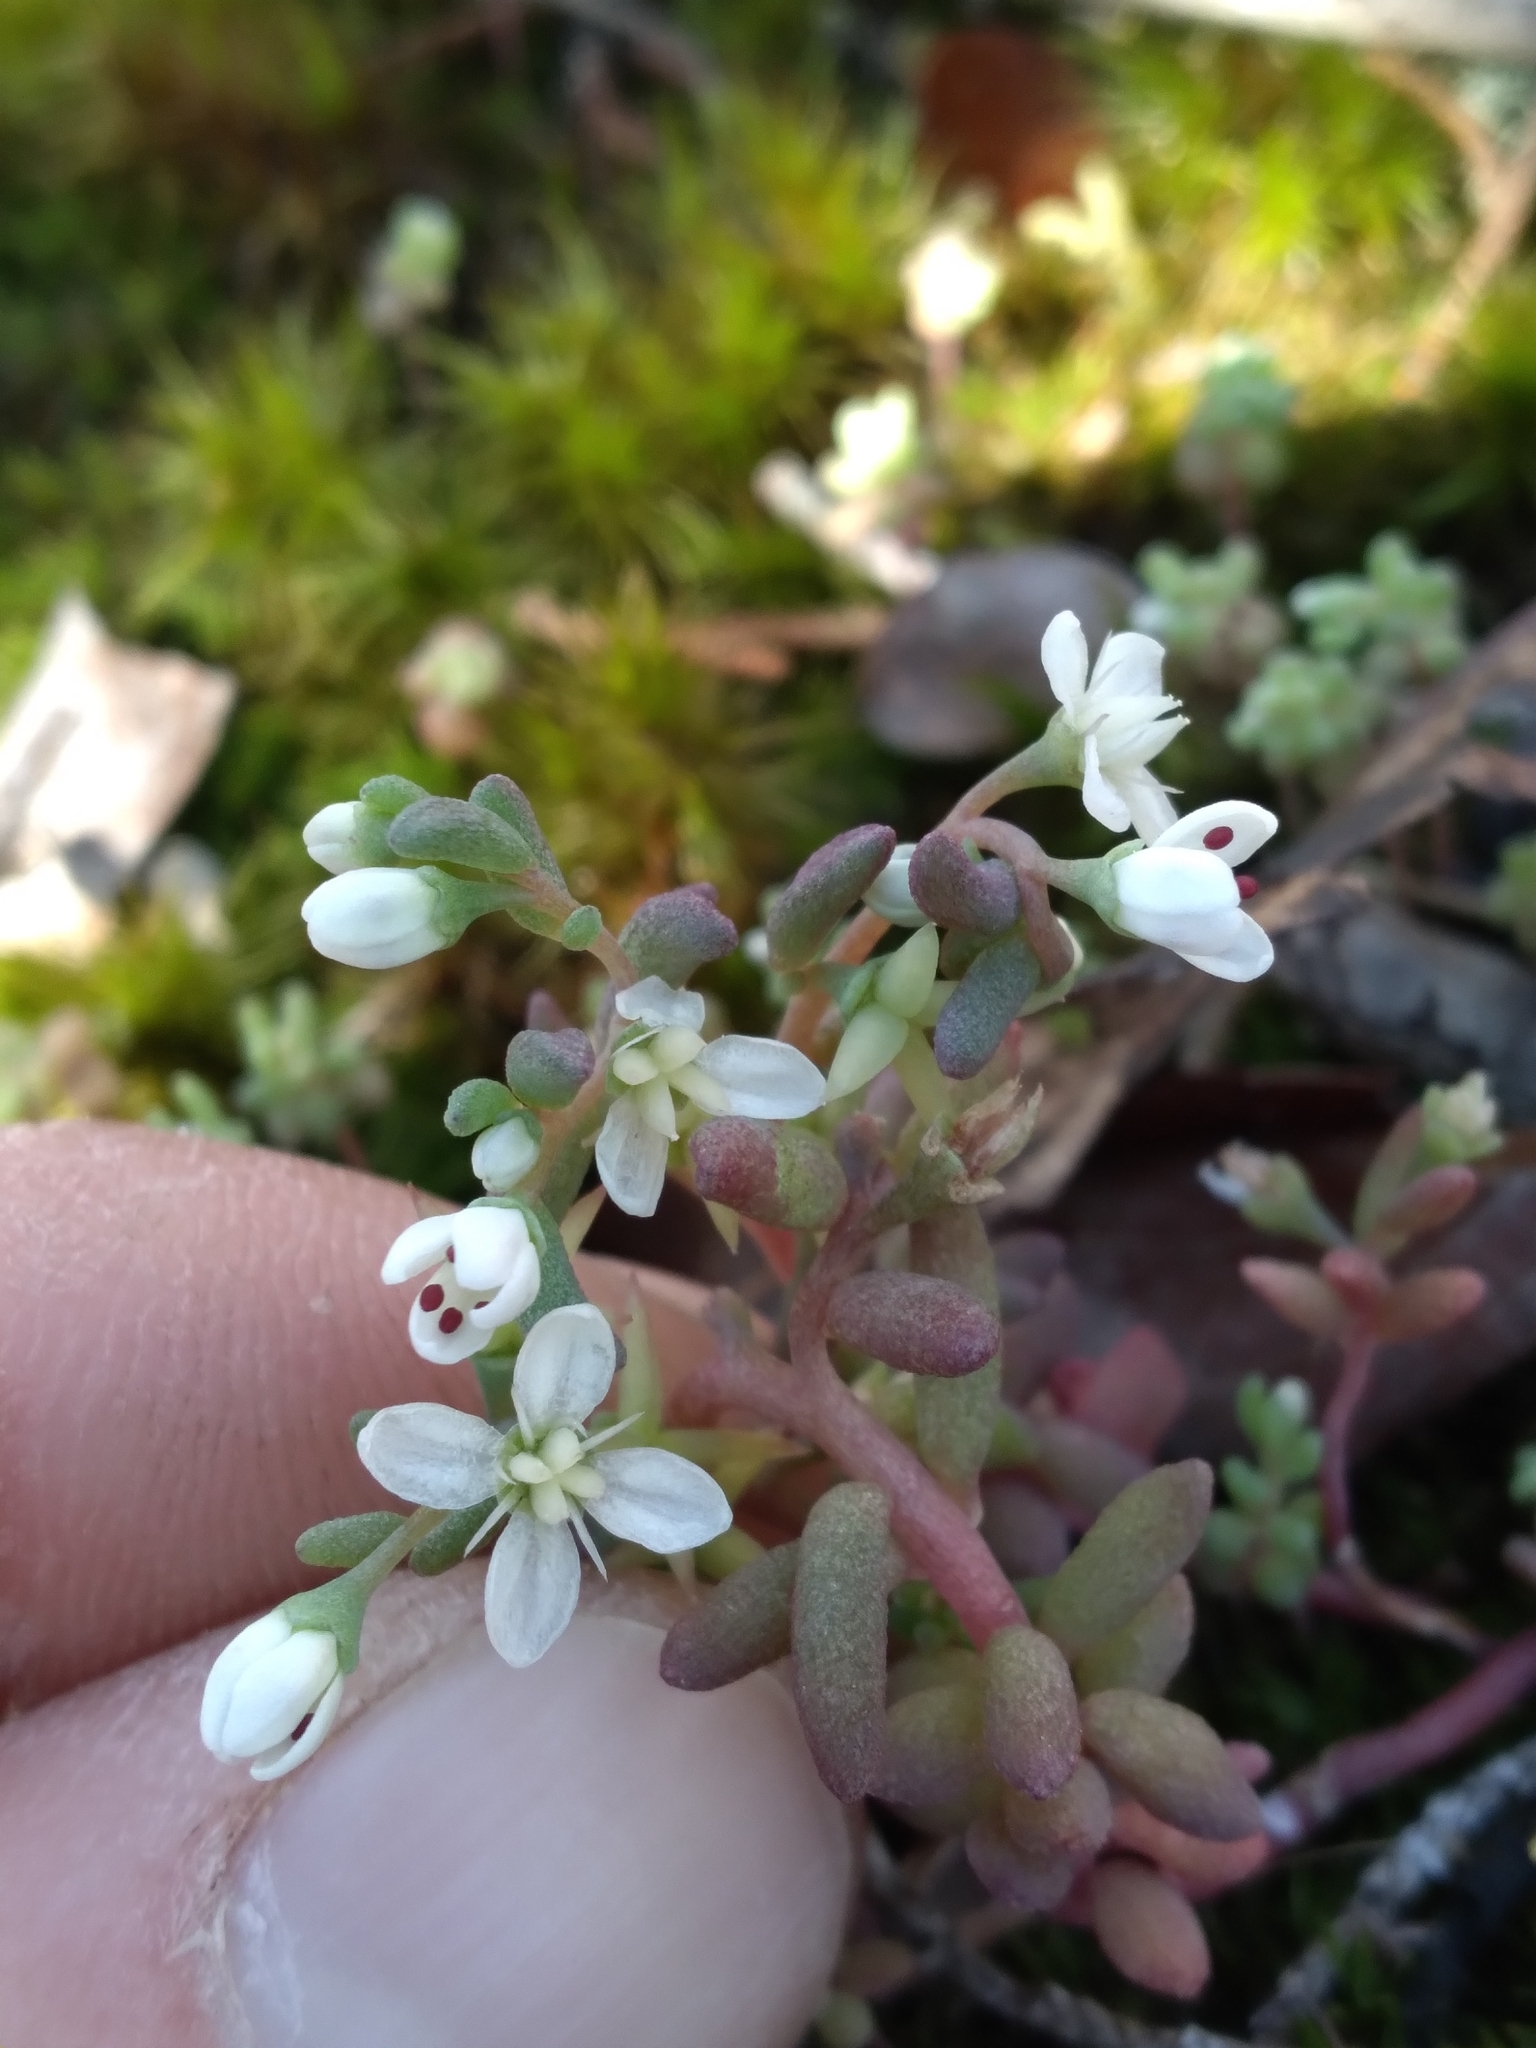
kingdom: Plantae
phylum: Tracheophyta
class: Magnoliopsida
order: Saxifragales
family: Crassulaceae
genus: Sedum
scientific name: Sedum pusillum
